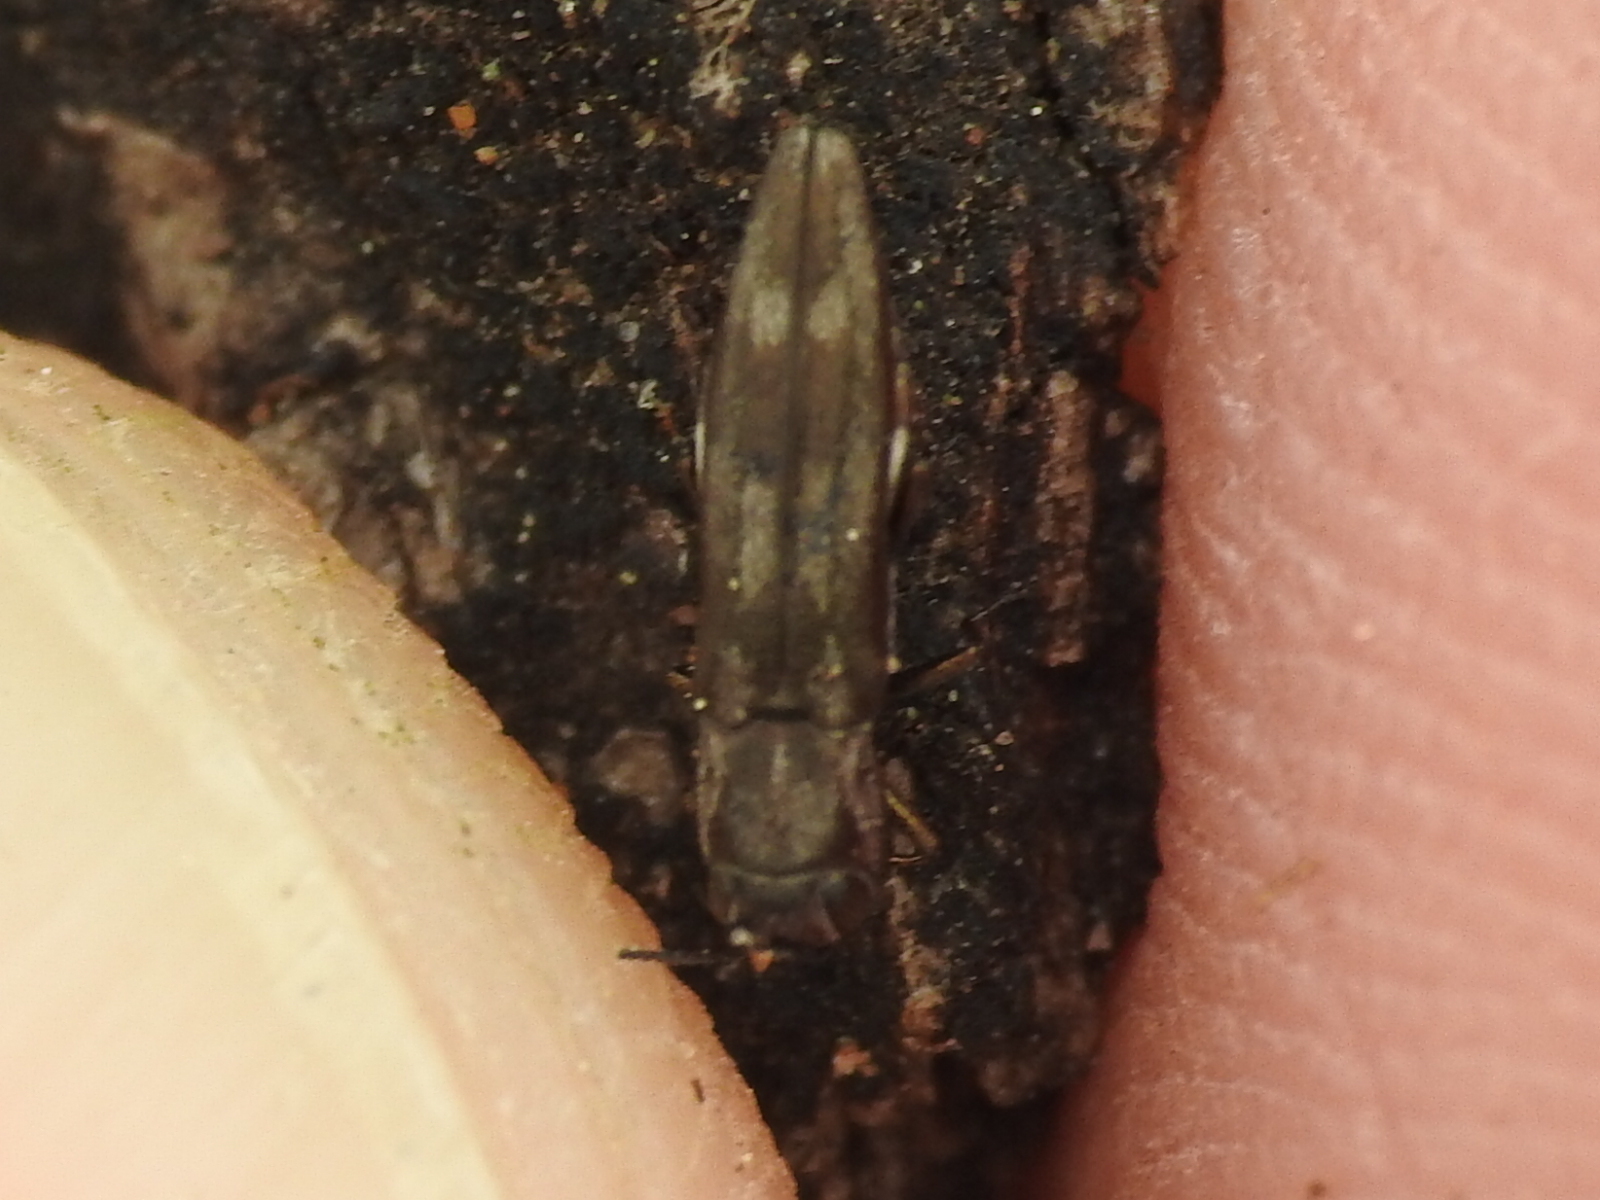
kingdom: Animalia
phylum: Arthropoda
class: Insecta
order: Coleoptera
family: Buprestidae
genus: Agrilus
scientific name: Agrilus acaciae
